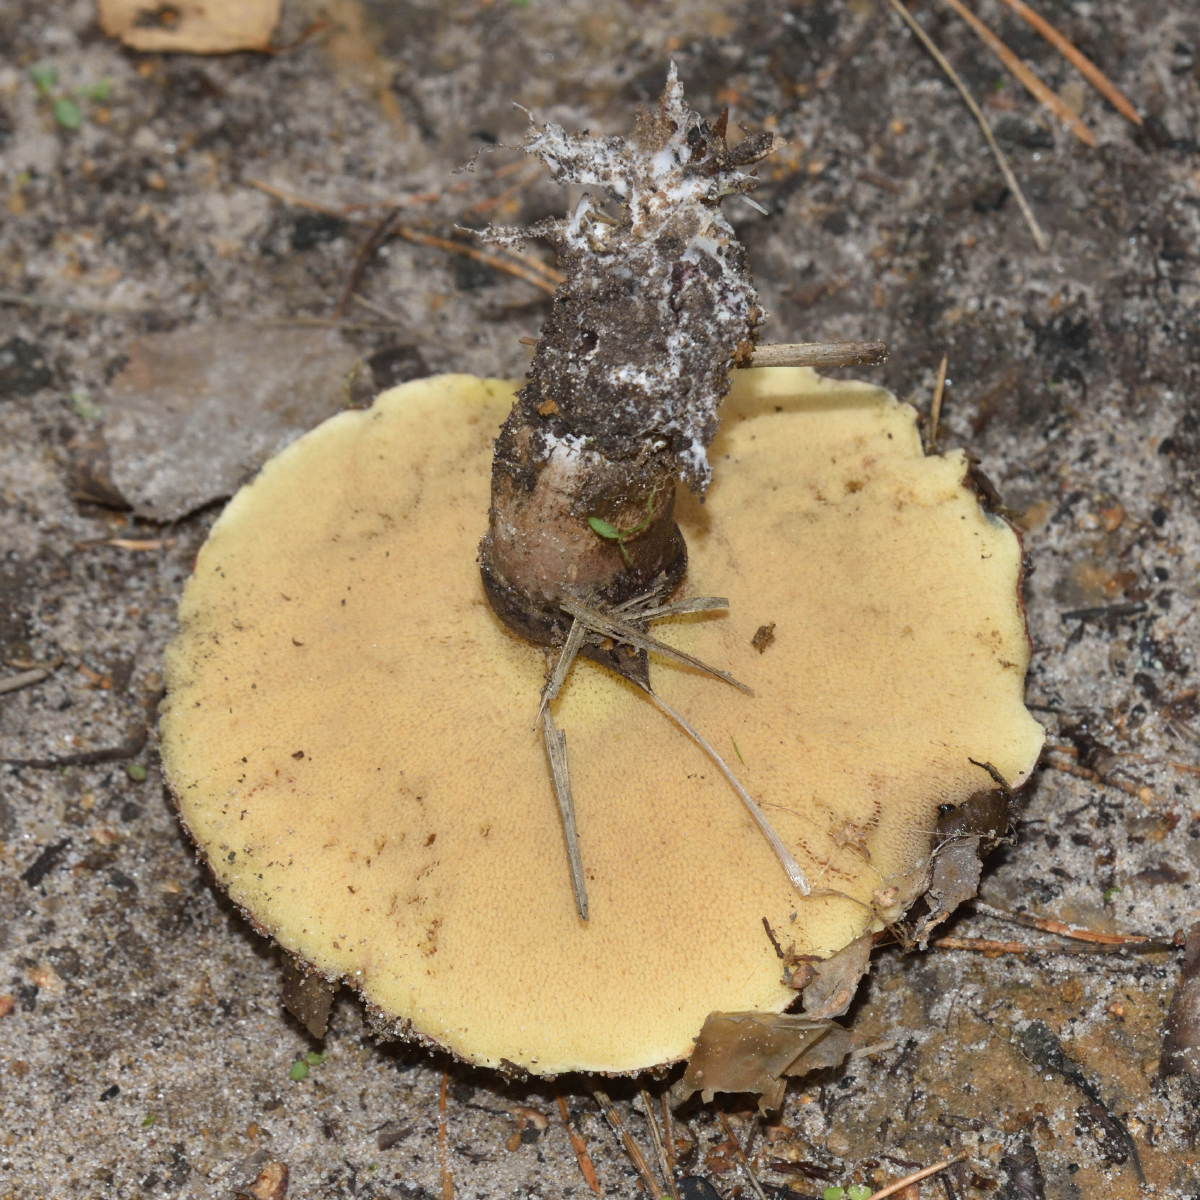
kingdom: Fungi
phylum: Basidiomycota
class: Agaricomycetes
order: Boletales
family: Suillaceae
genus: Suillus
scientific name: Suillus luteus
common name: Slippery jack
